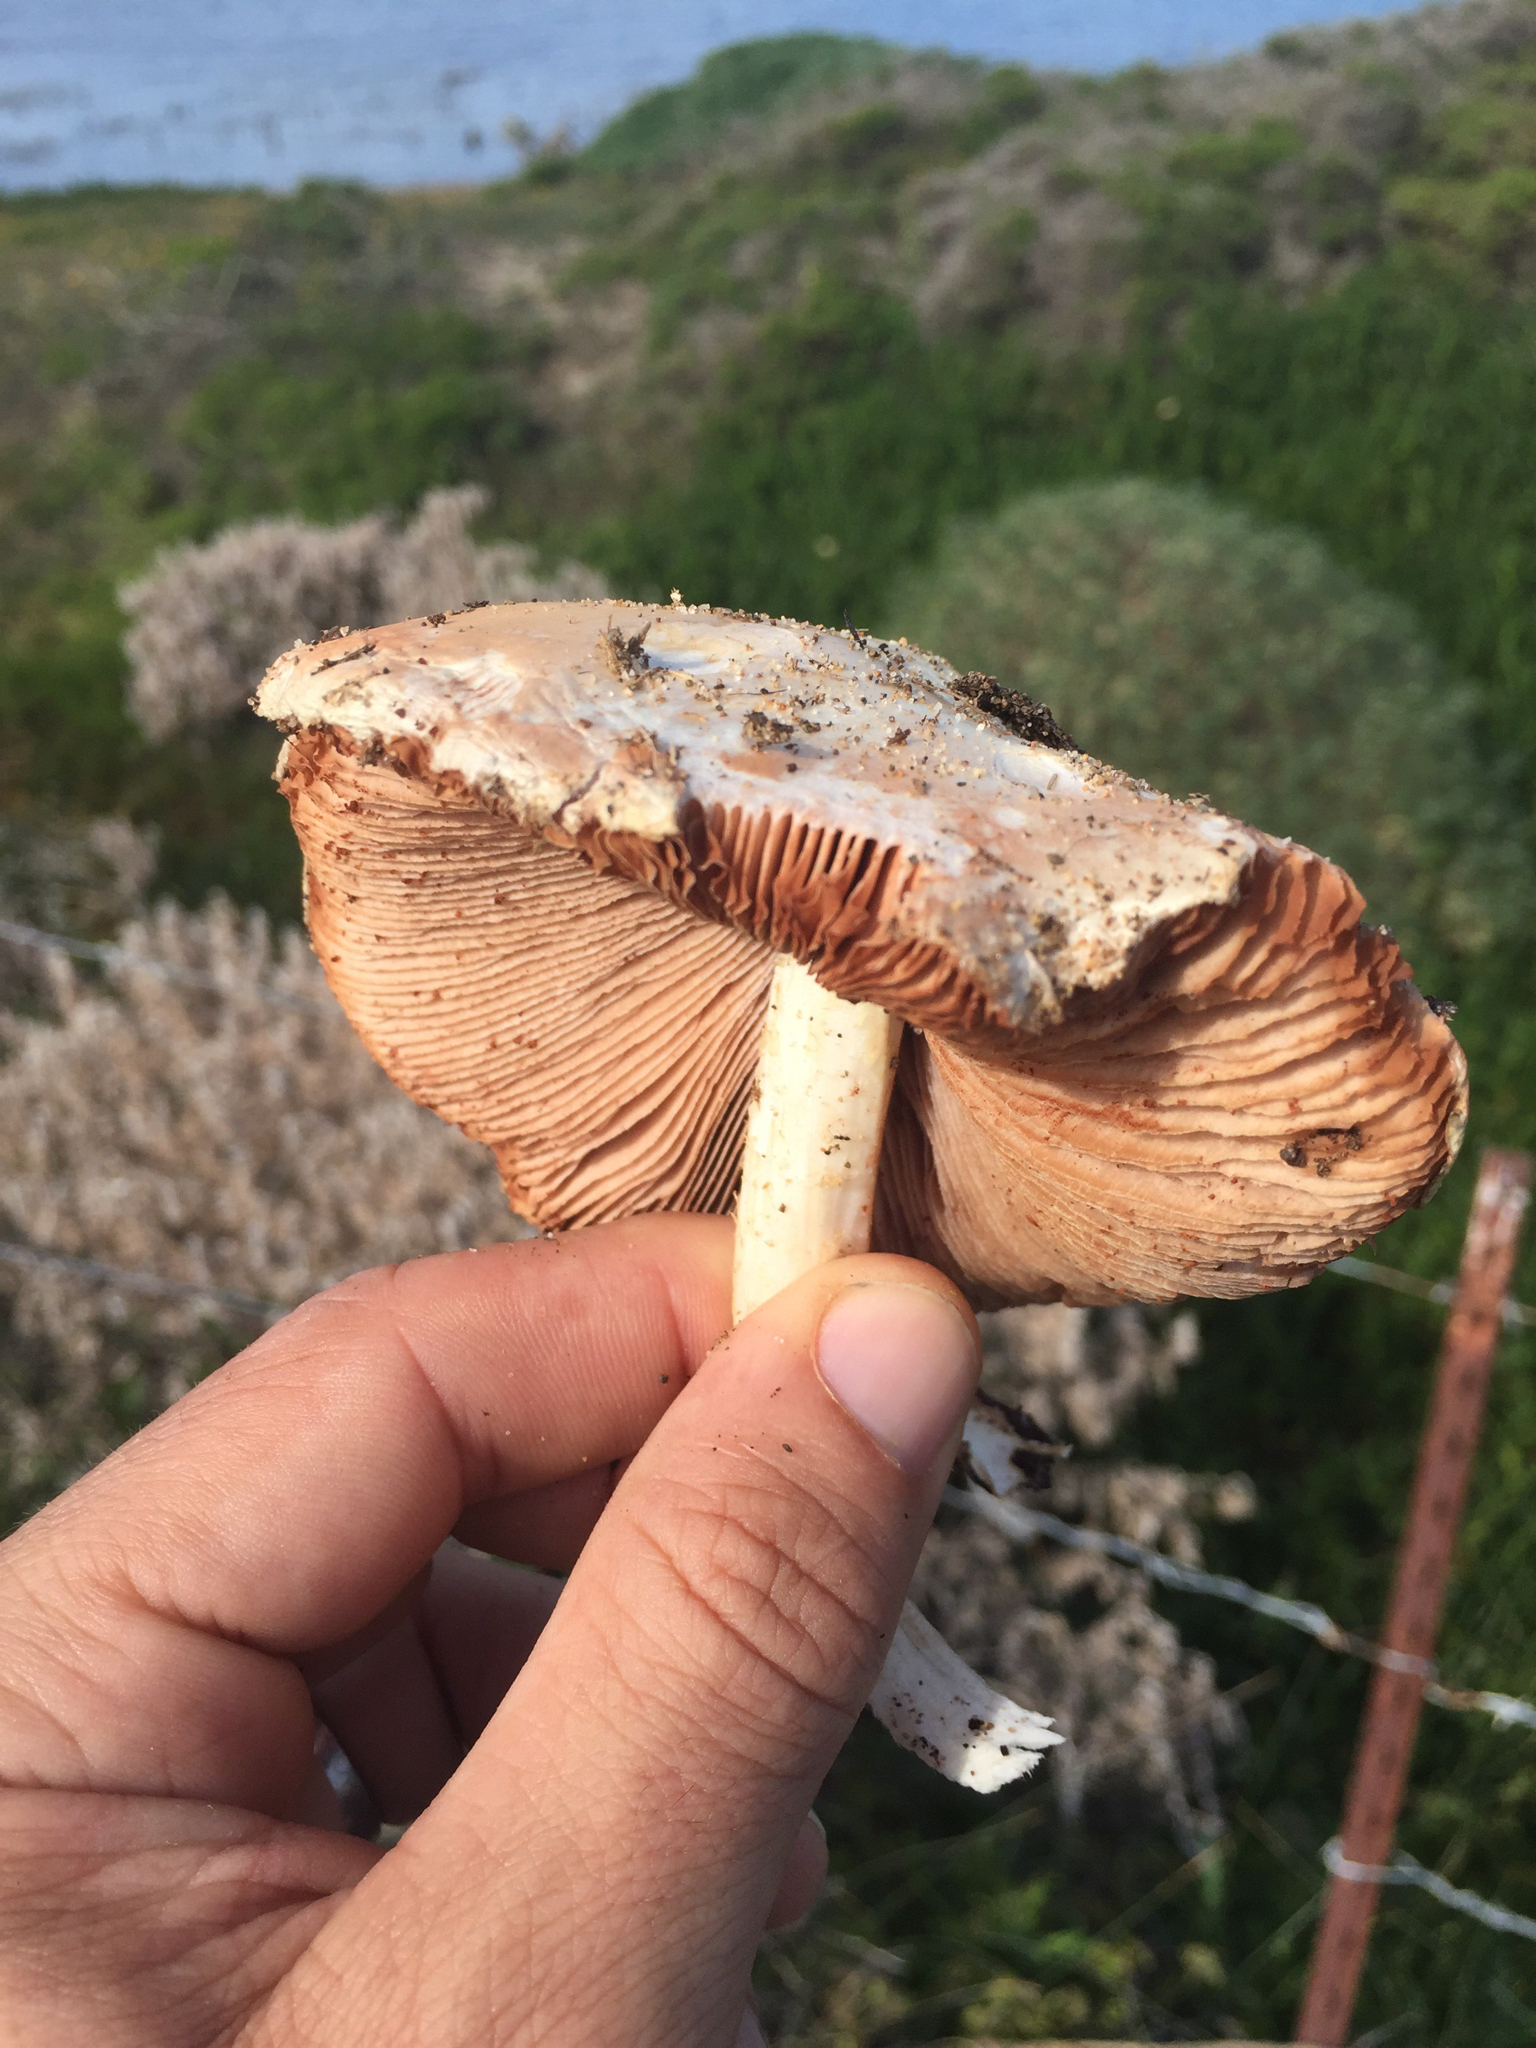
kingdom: Fungi
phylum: Basidiomycota
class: Agaricomycetes
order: Agaricales
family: Pluteaceae
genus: Volvopluteus
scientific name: Volvopluteus gloiocephalus
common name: Stubble rosegill
